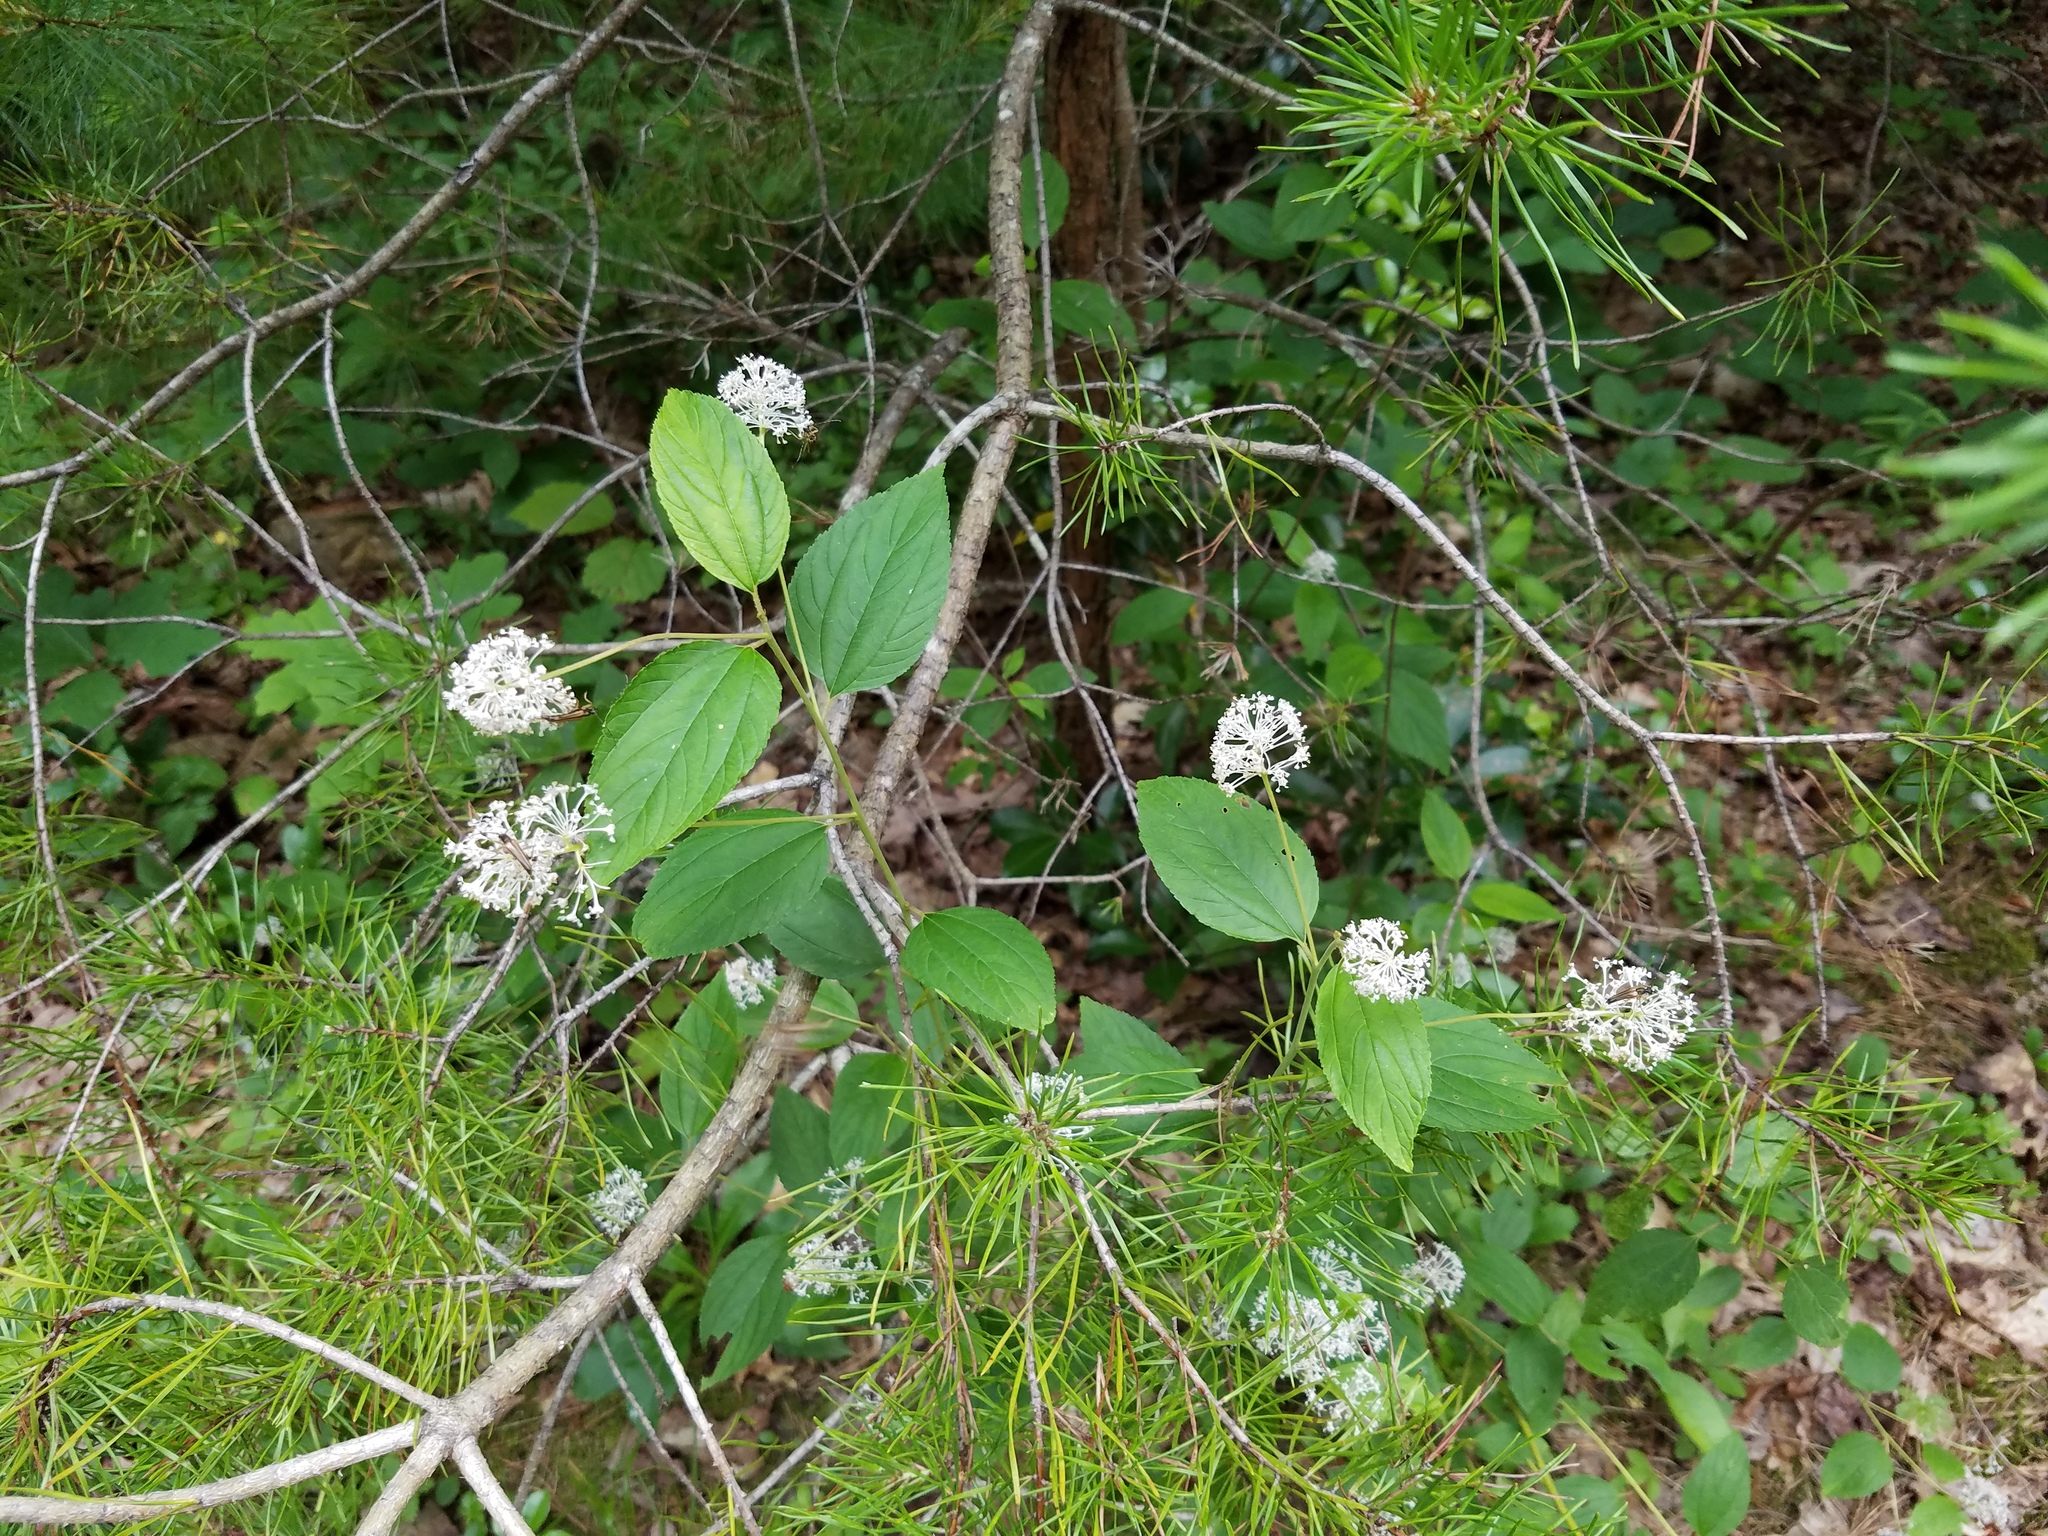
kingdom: Animalia
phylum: Arthropoda
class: Insecta
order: Coleoptera
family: Cerambycidae
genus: Analeptura
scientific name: Analeptura lineola
